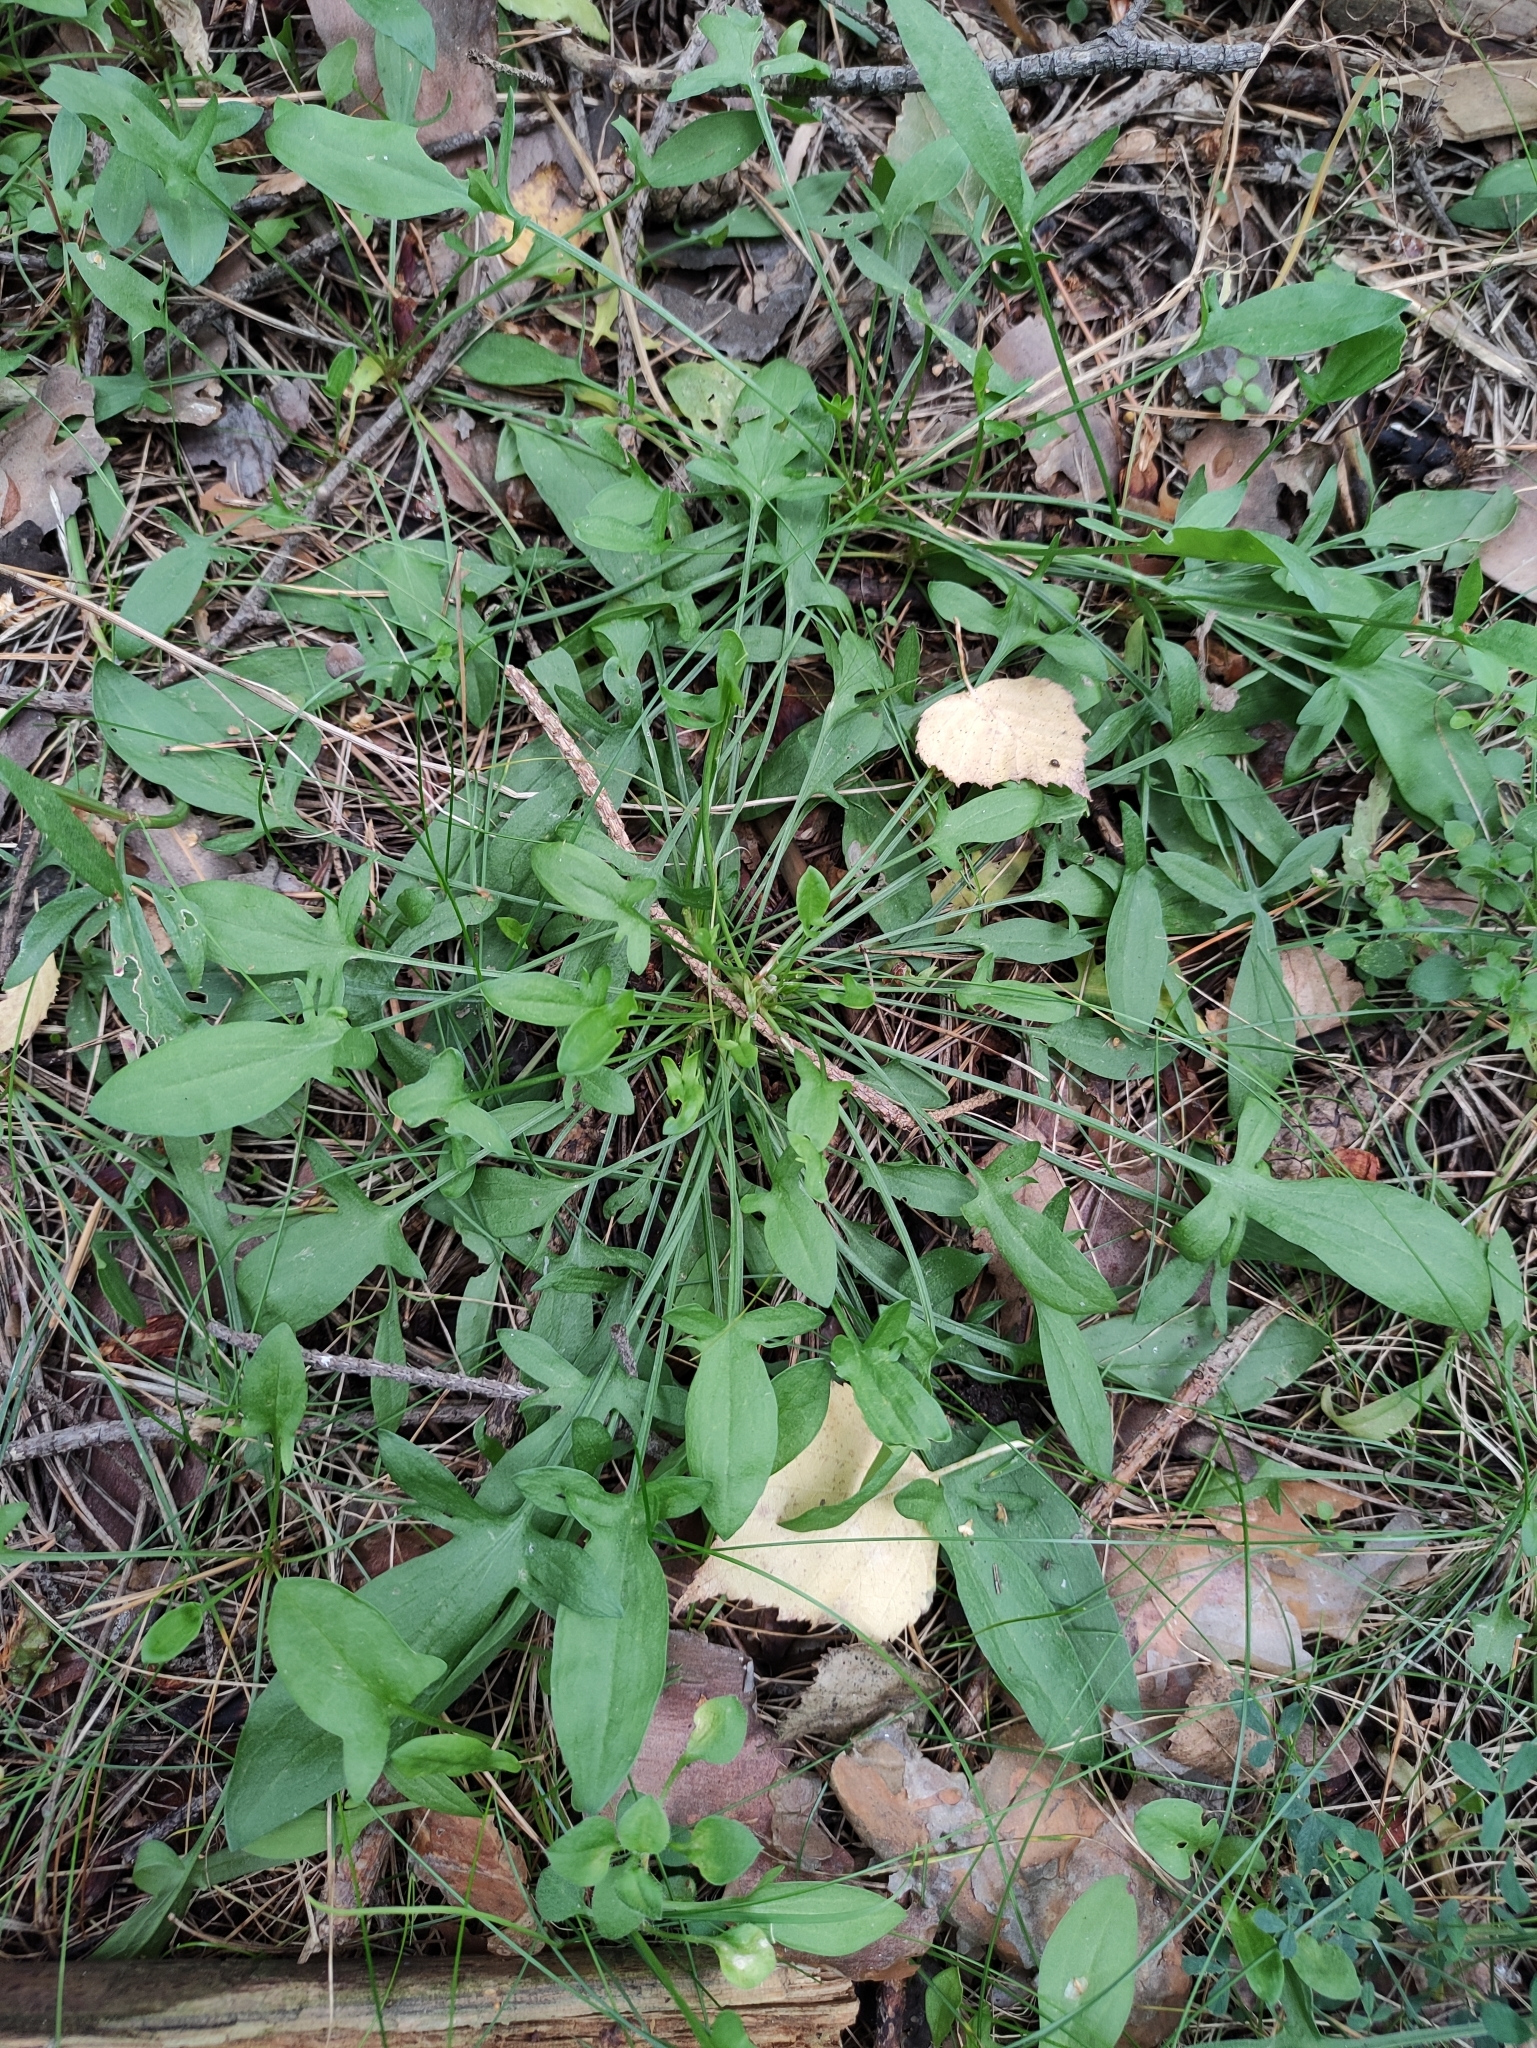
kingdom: Plantae
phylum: Tracheophyta
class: Magnoliopsida
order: Caryophyllales
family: Polygonaceae
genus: Rumex
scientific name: Rumex acetosella
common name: Common sheep sorrel
